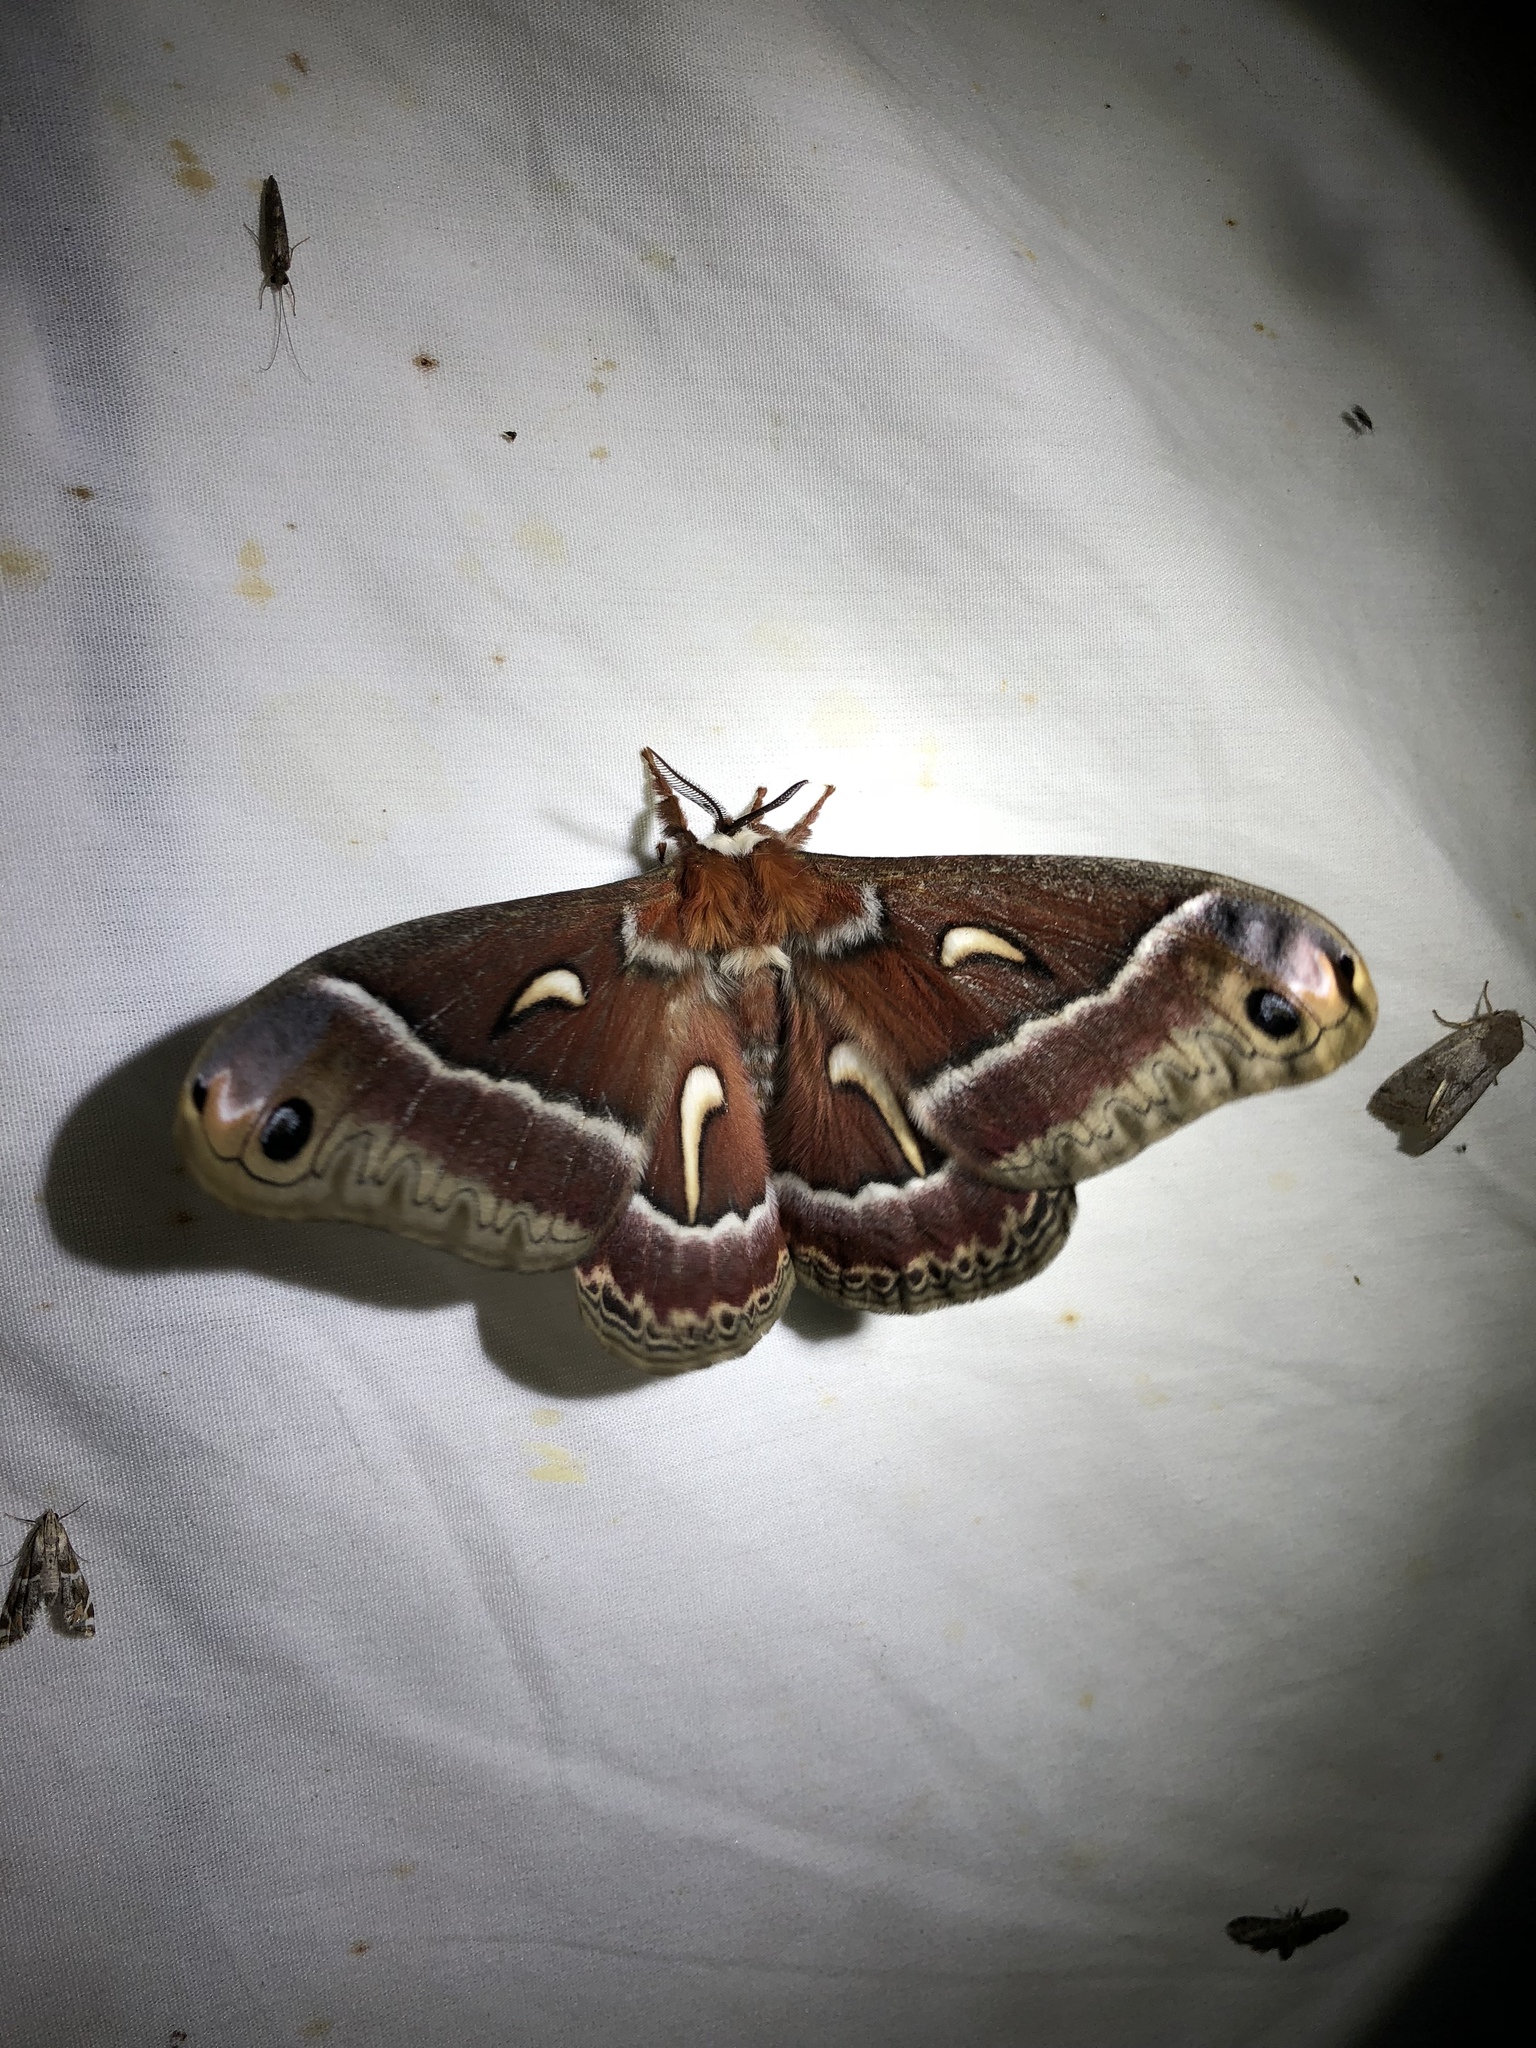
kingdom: Animalia
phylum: Arthropoda
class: Insecta
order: Lepidoptera
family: Saturniidae
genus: Hyalophora
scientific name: Hyalophora euryalus
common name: Ceanothus silkmoth
